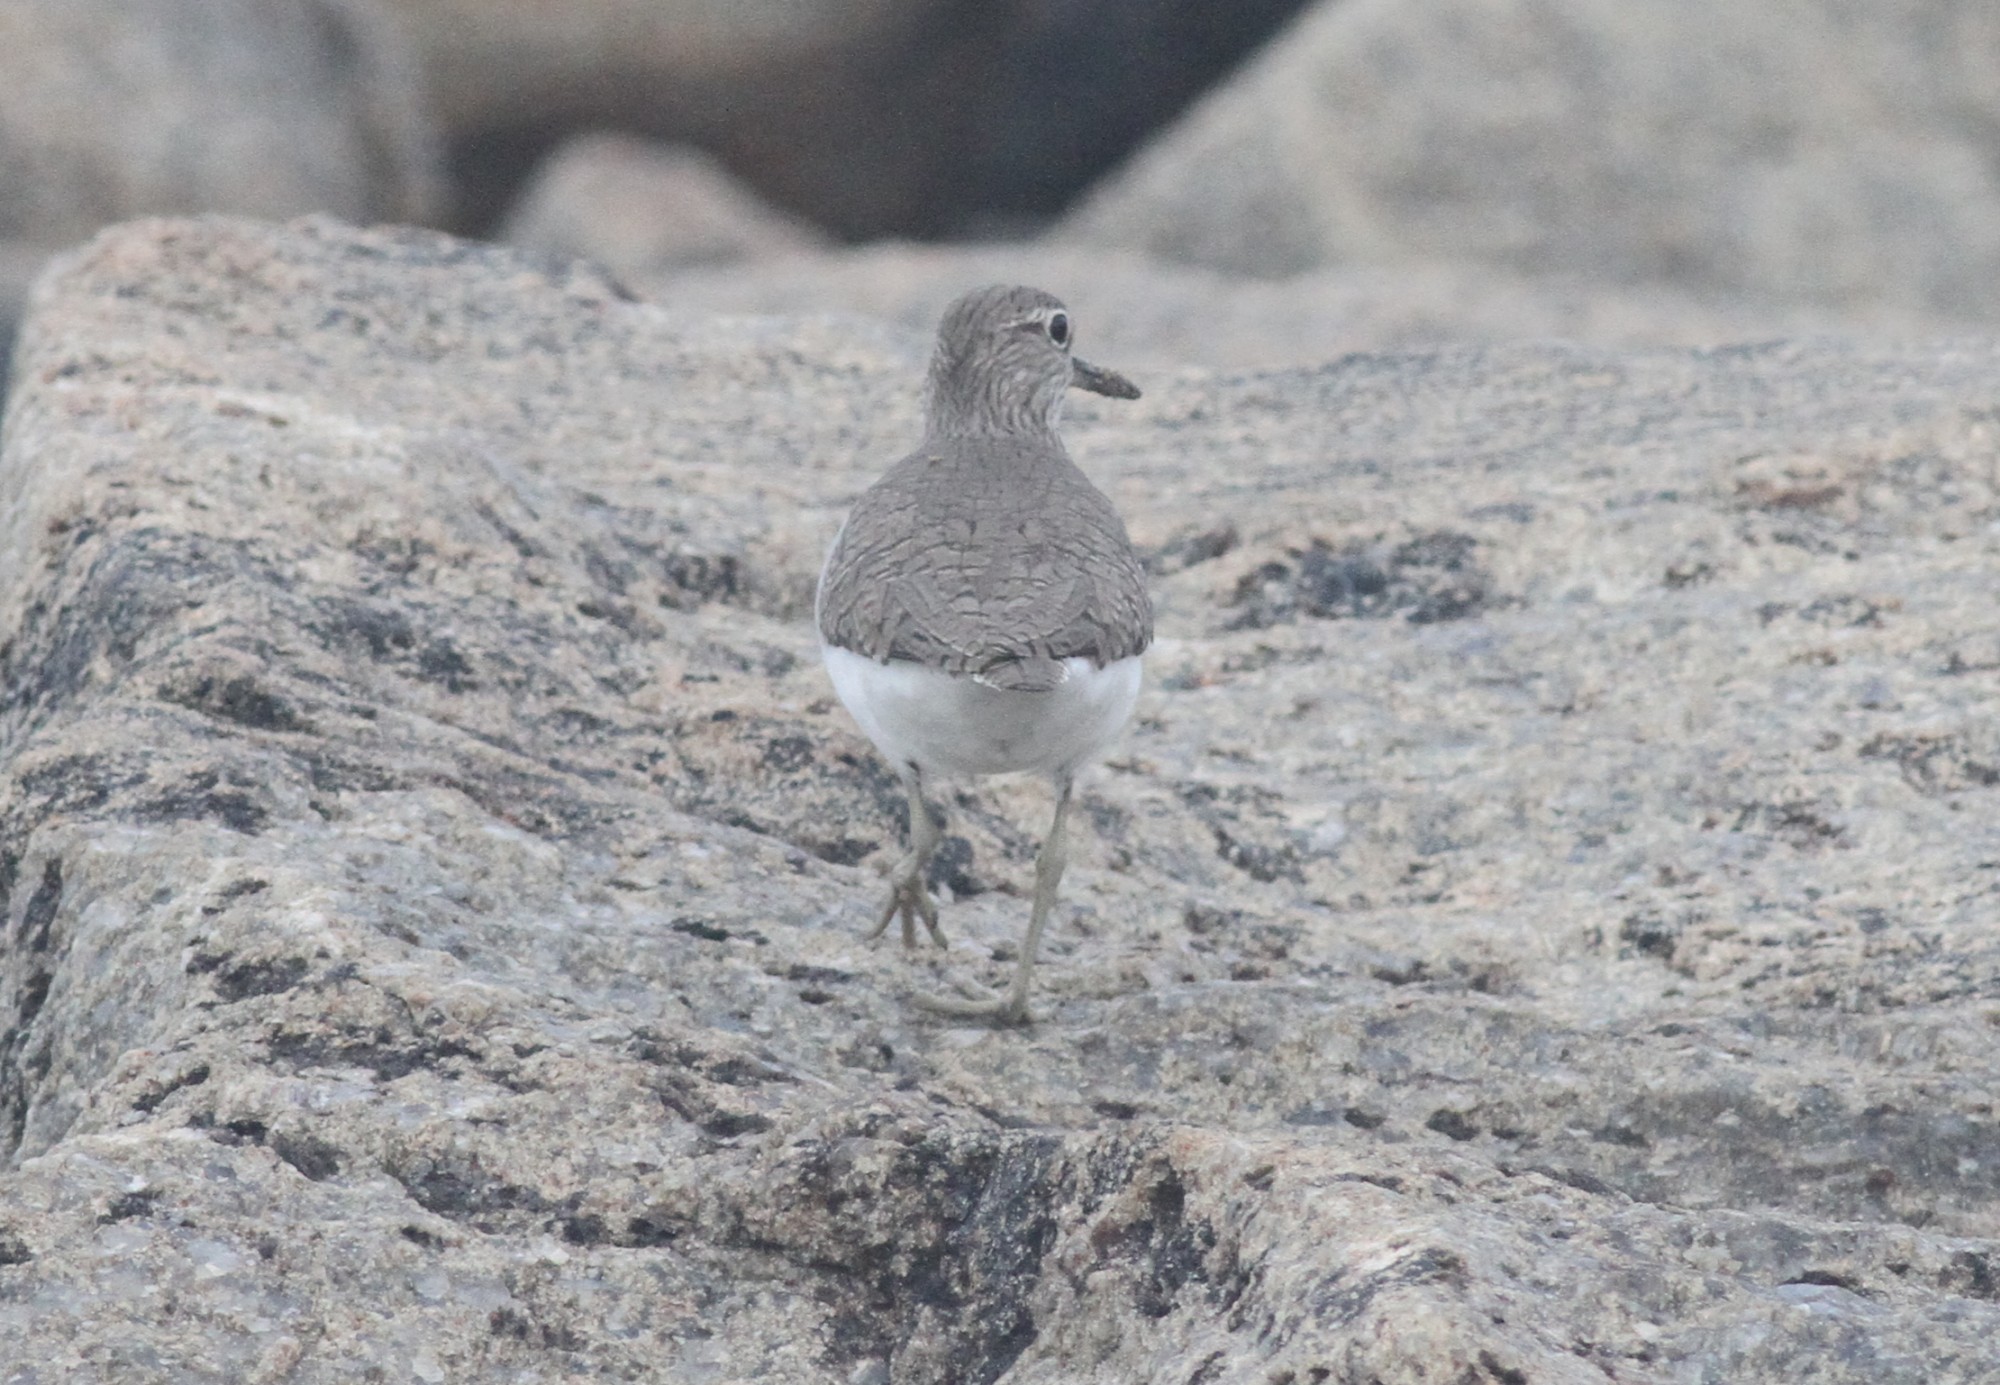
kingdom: Animalia
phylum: Chordata
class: Aves
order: Charadriiformes
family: Scolopacidae
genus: Actitis
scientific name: Actitis hypoleucos
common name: Common sandpiper
